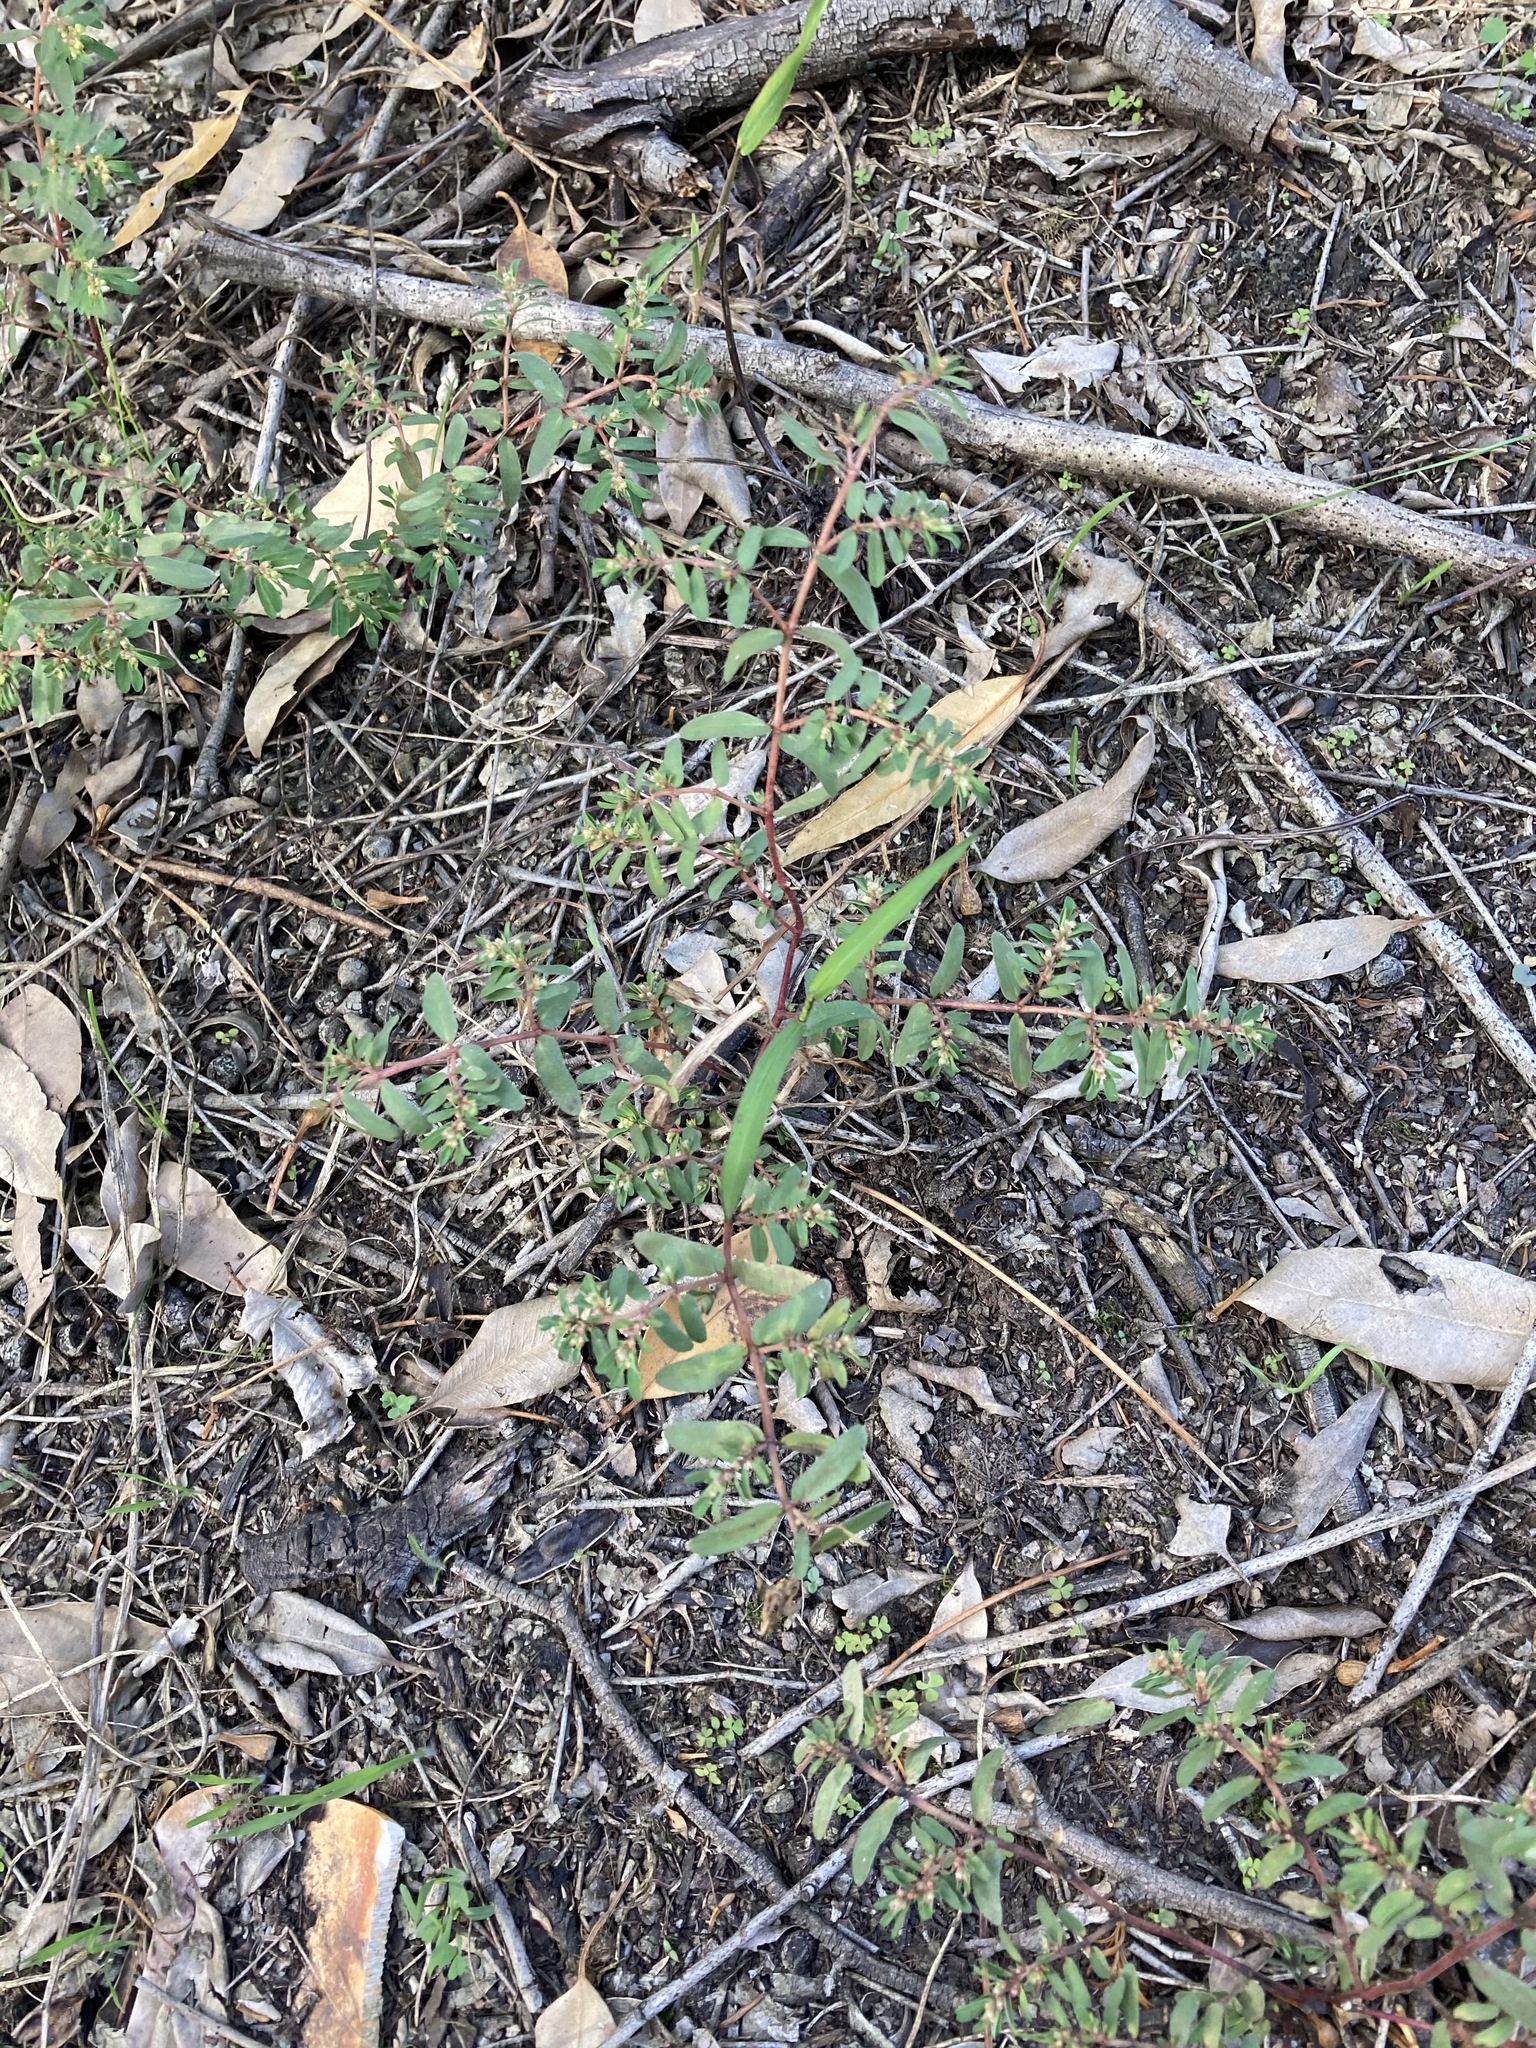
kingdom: Plantae
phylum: Tracheophyta
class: Magnoliopsida
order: Malpighiales
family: Euphorbiaceae
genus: Euphorbia
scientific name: Euphorbia maculata
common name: Spotted spurge
